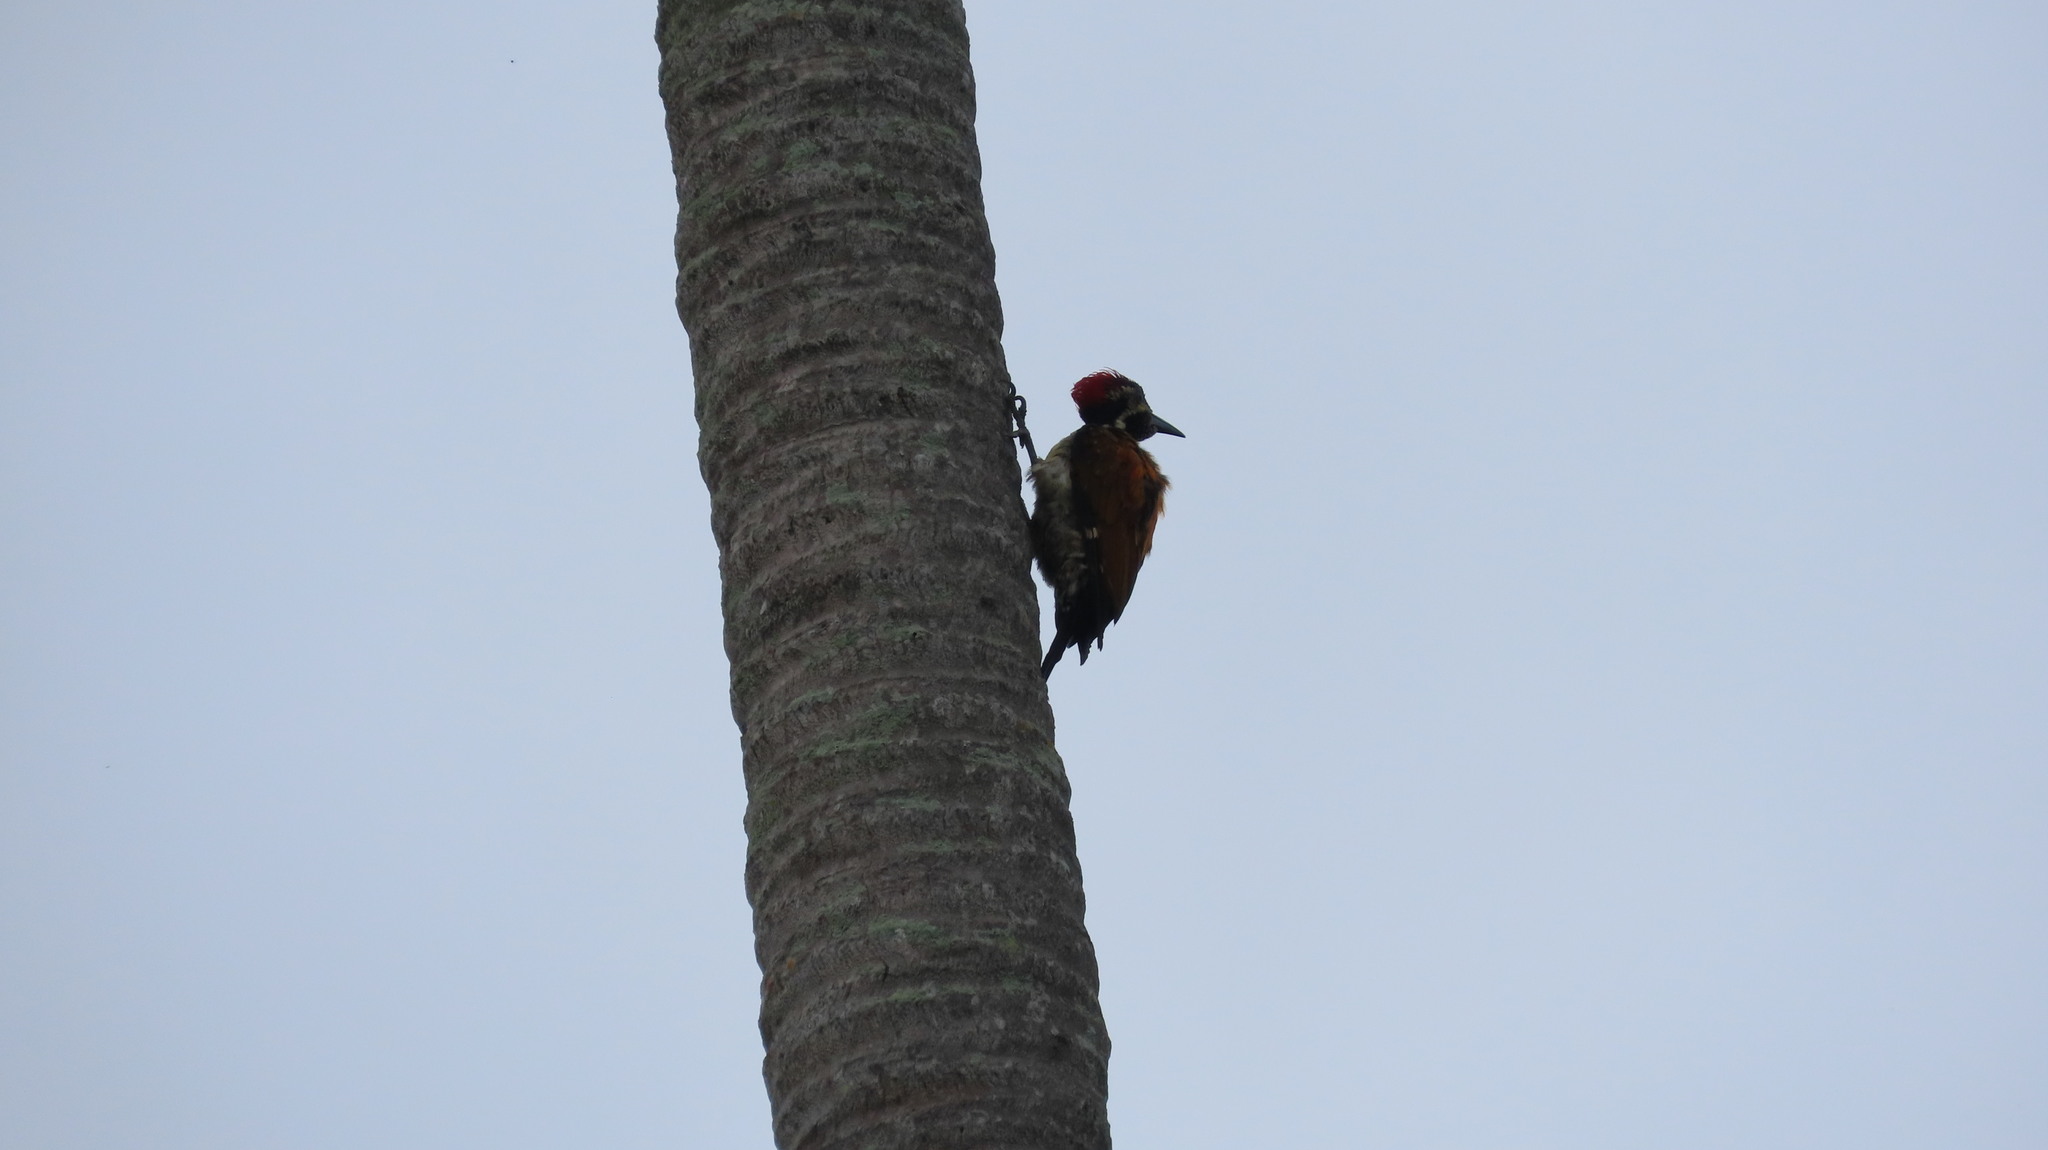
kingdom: Animalia
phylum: Chordata
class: Aves
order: Piciformes
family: Picidae
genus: Dinopium
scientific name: Dinopium benghalense
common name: Black-rumped flameback
